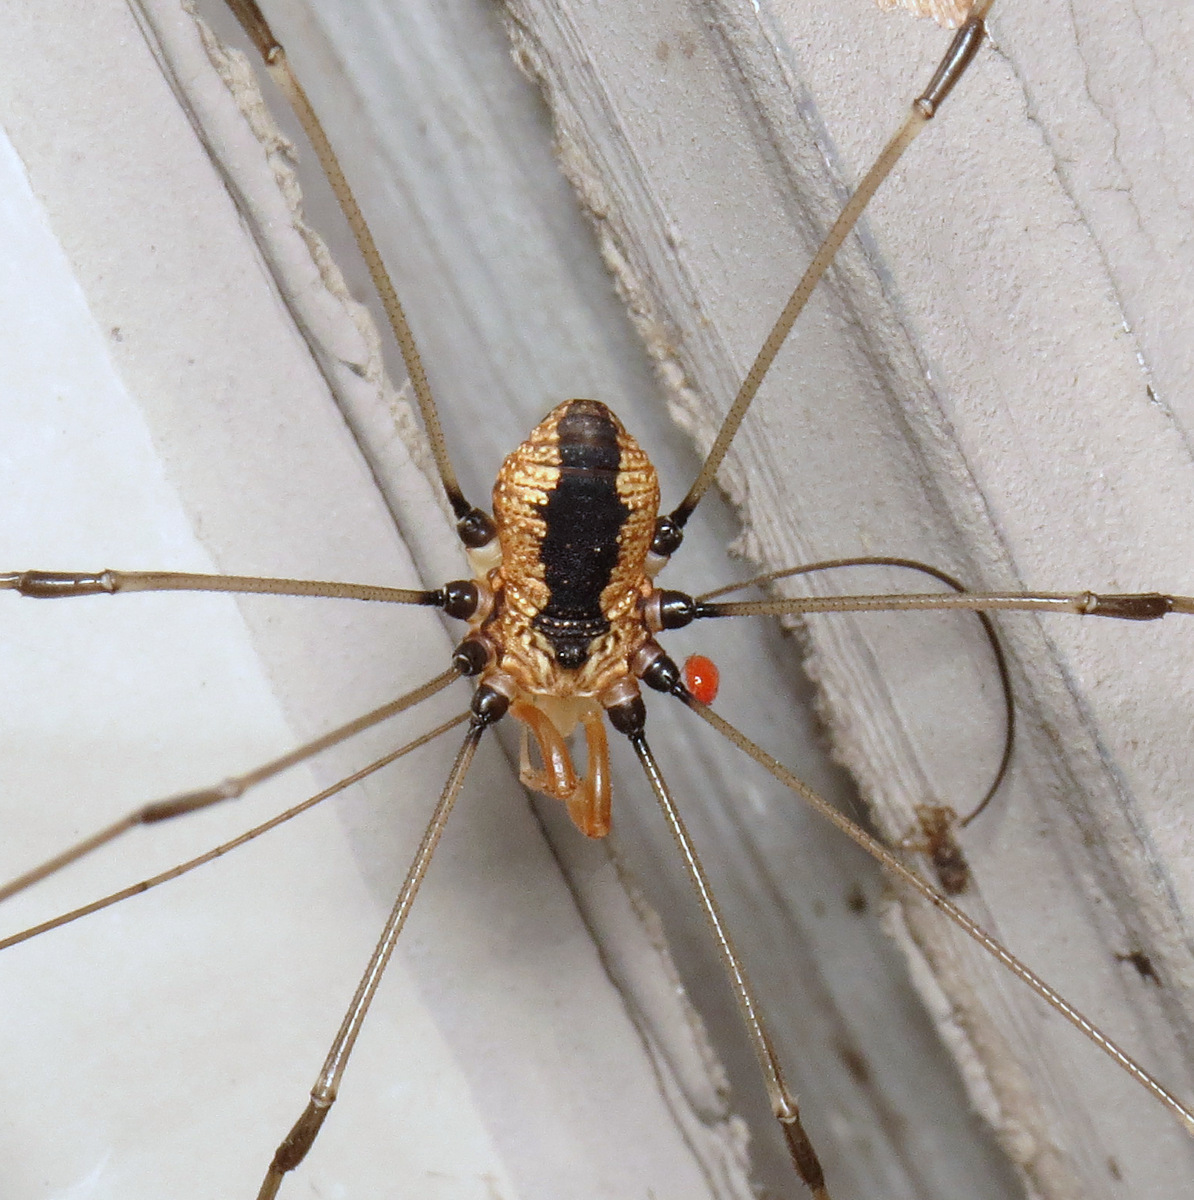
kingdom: Animalia
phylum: Arthropoda
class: Arachnida
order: Opiliones
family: Sclerosomatidae
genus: Leiobunum
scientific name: Leiobunum vittatum
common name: Eastern harvestman
